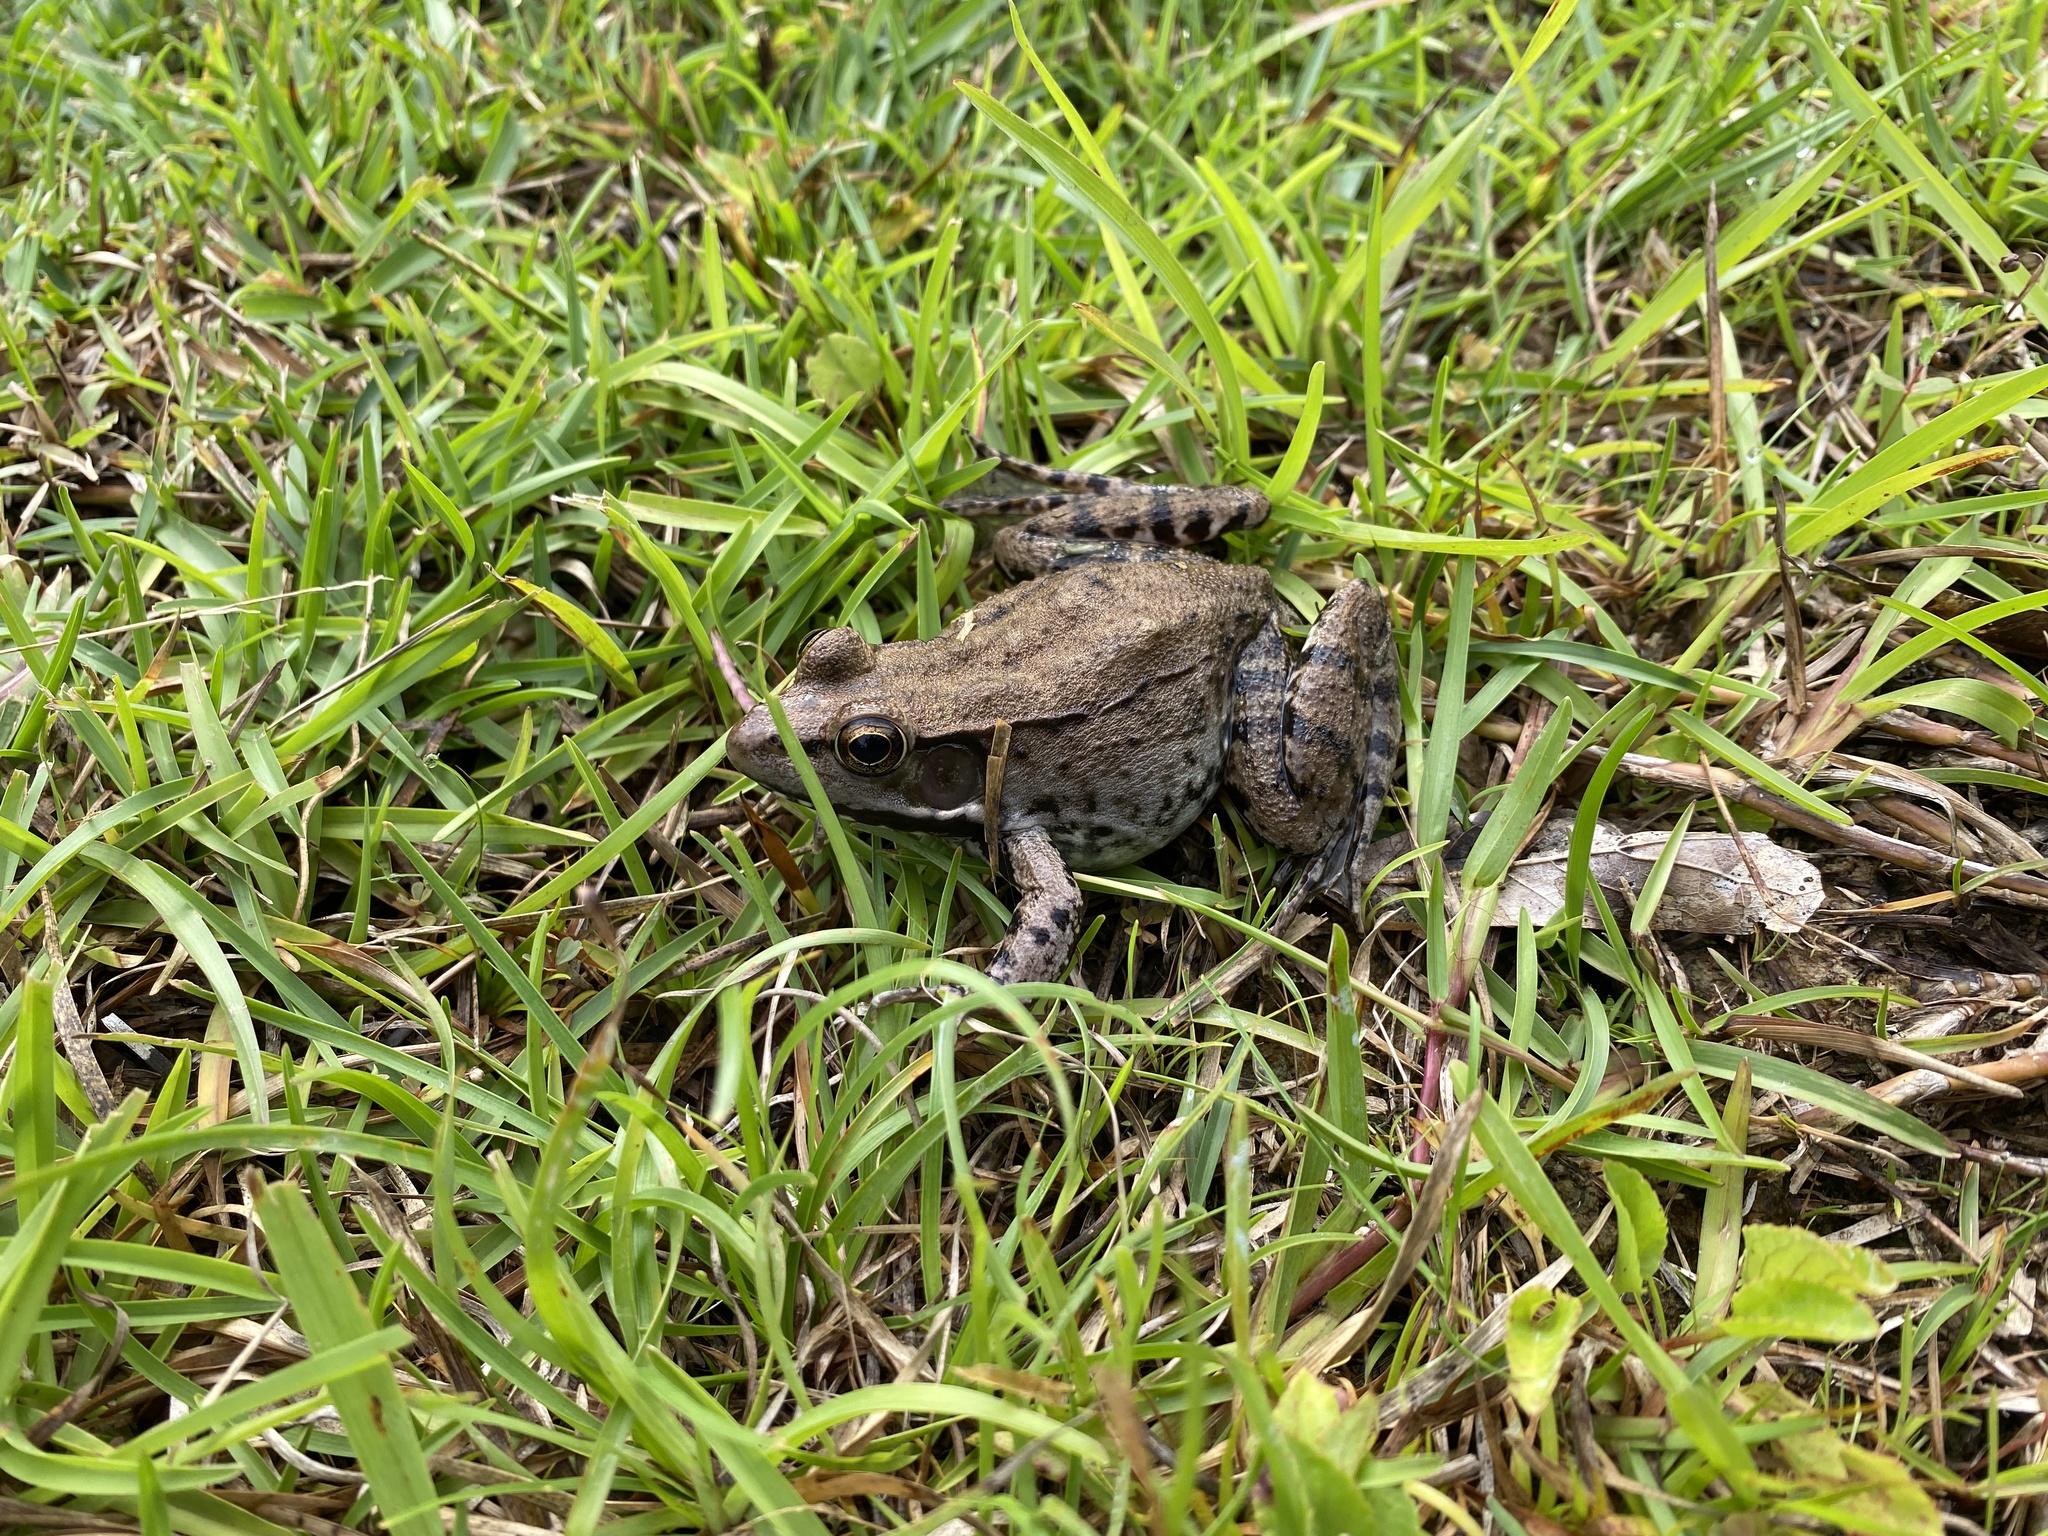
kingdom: Animalia
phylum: Chordata
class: Amphibia
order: Anura
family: Ranidae
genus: Lithobates
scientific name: Lithobates clamitans
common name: Green frog
